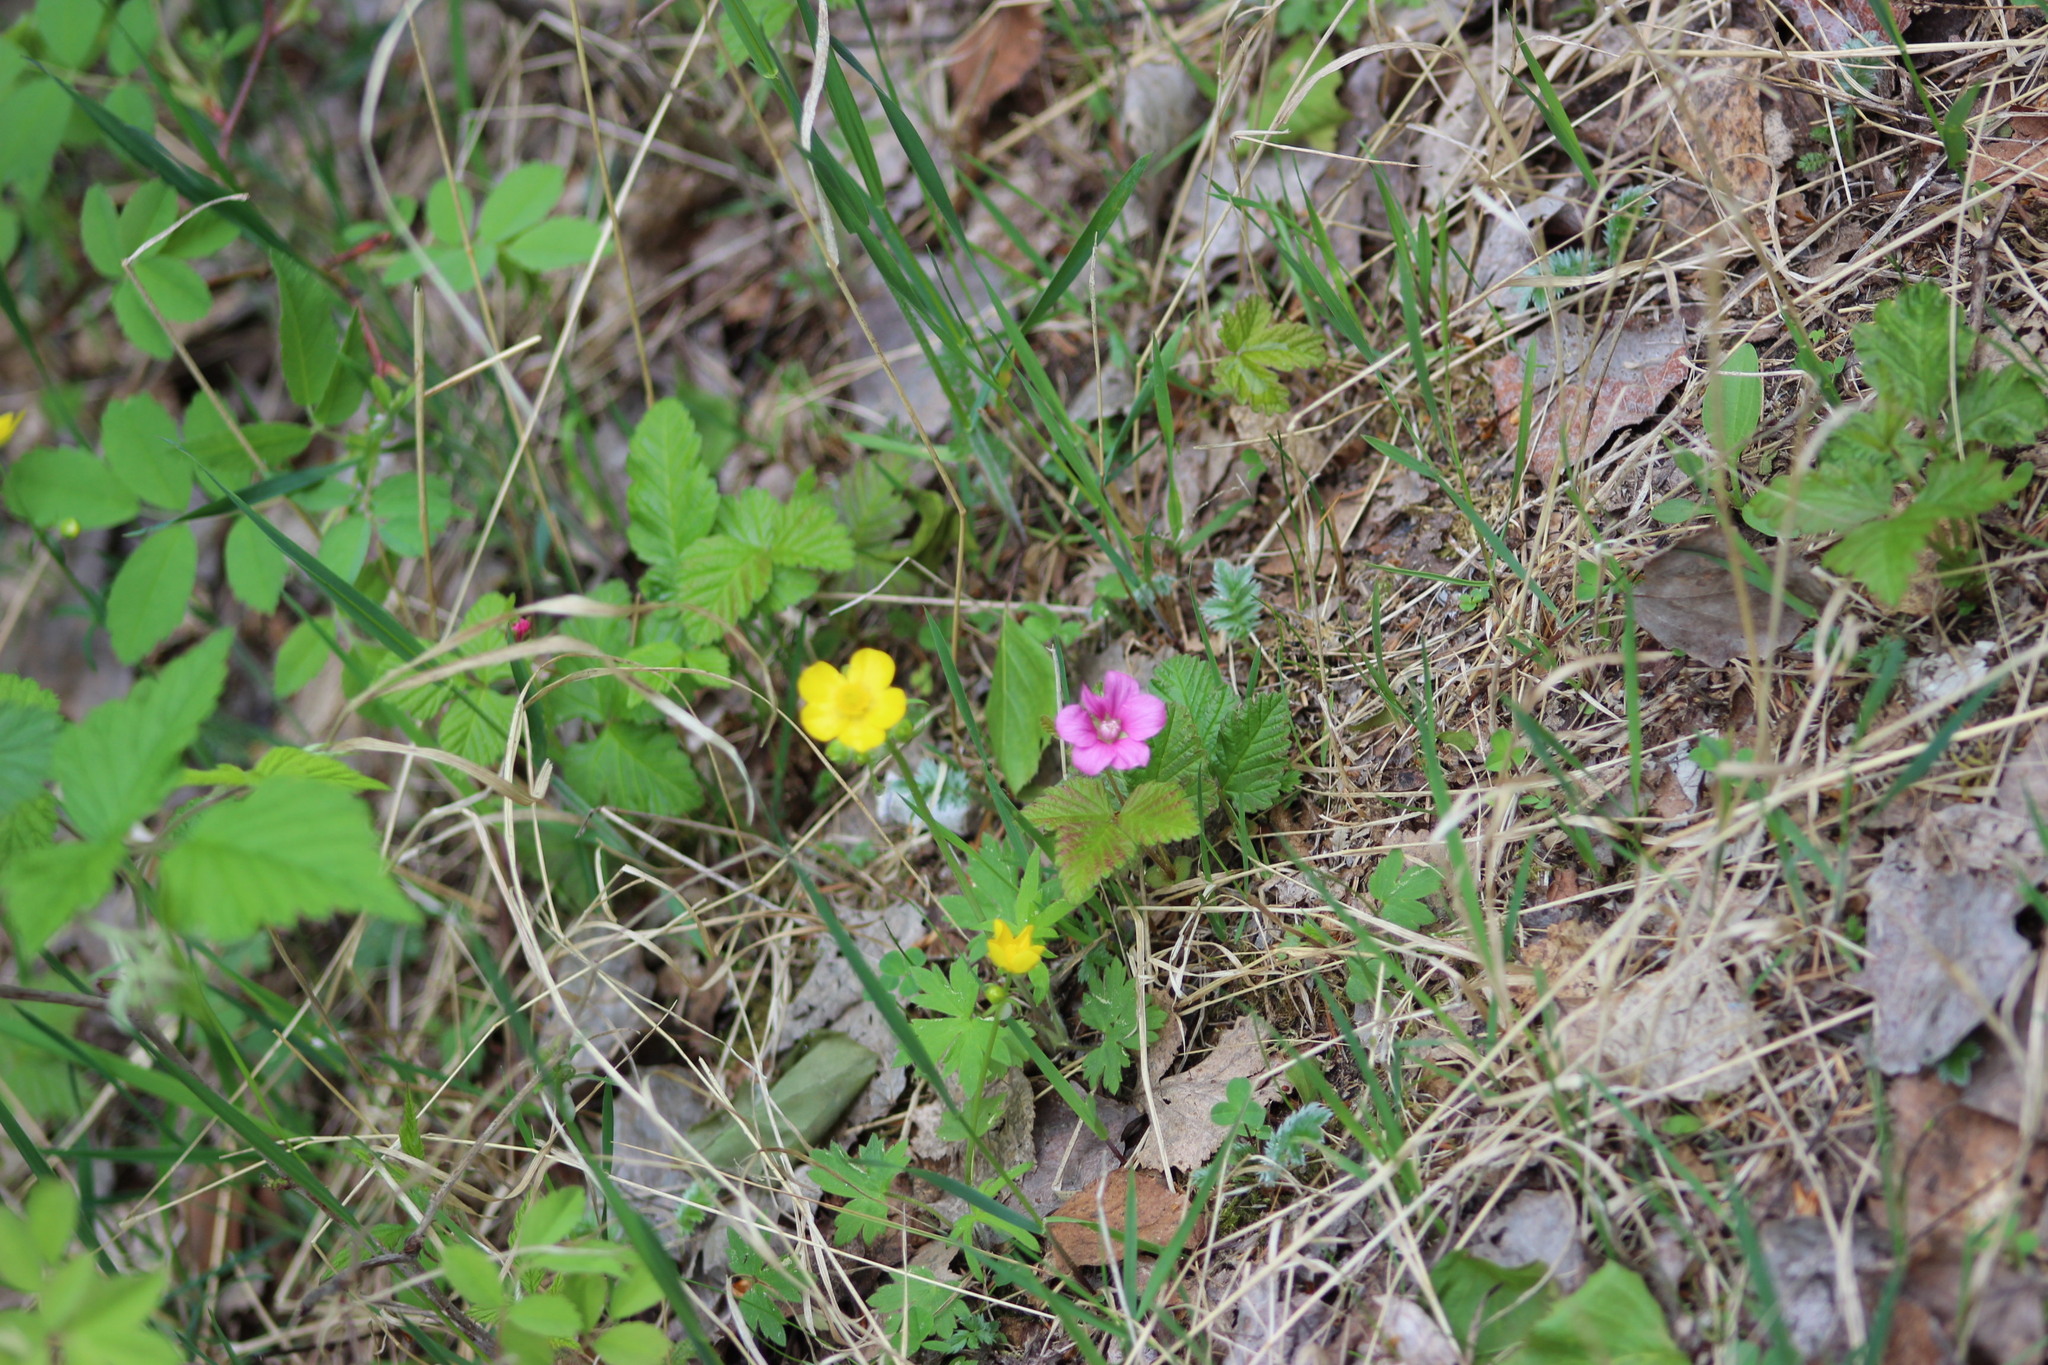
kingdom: Plantae
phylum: Tracheophyta
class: Magnoliopsida
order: Rosales
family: Rosaceae
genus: Rubus
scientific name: Rubus arcticus
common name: Arctic bramble
